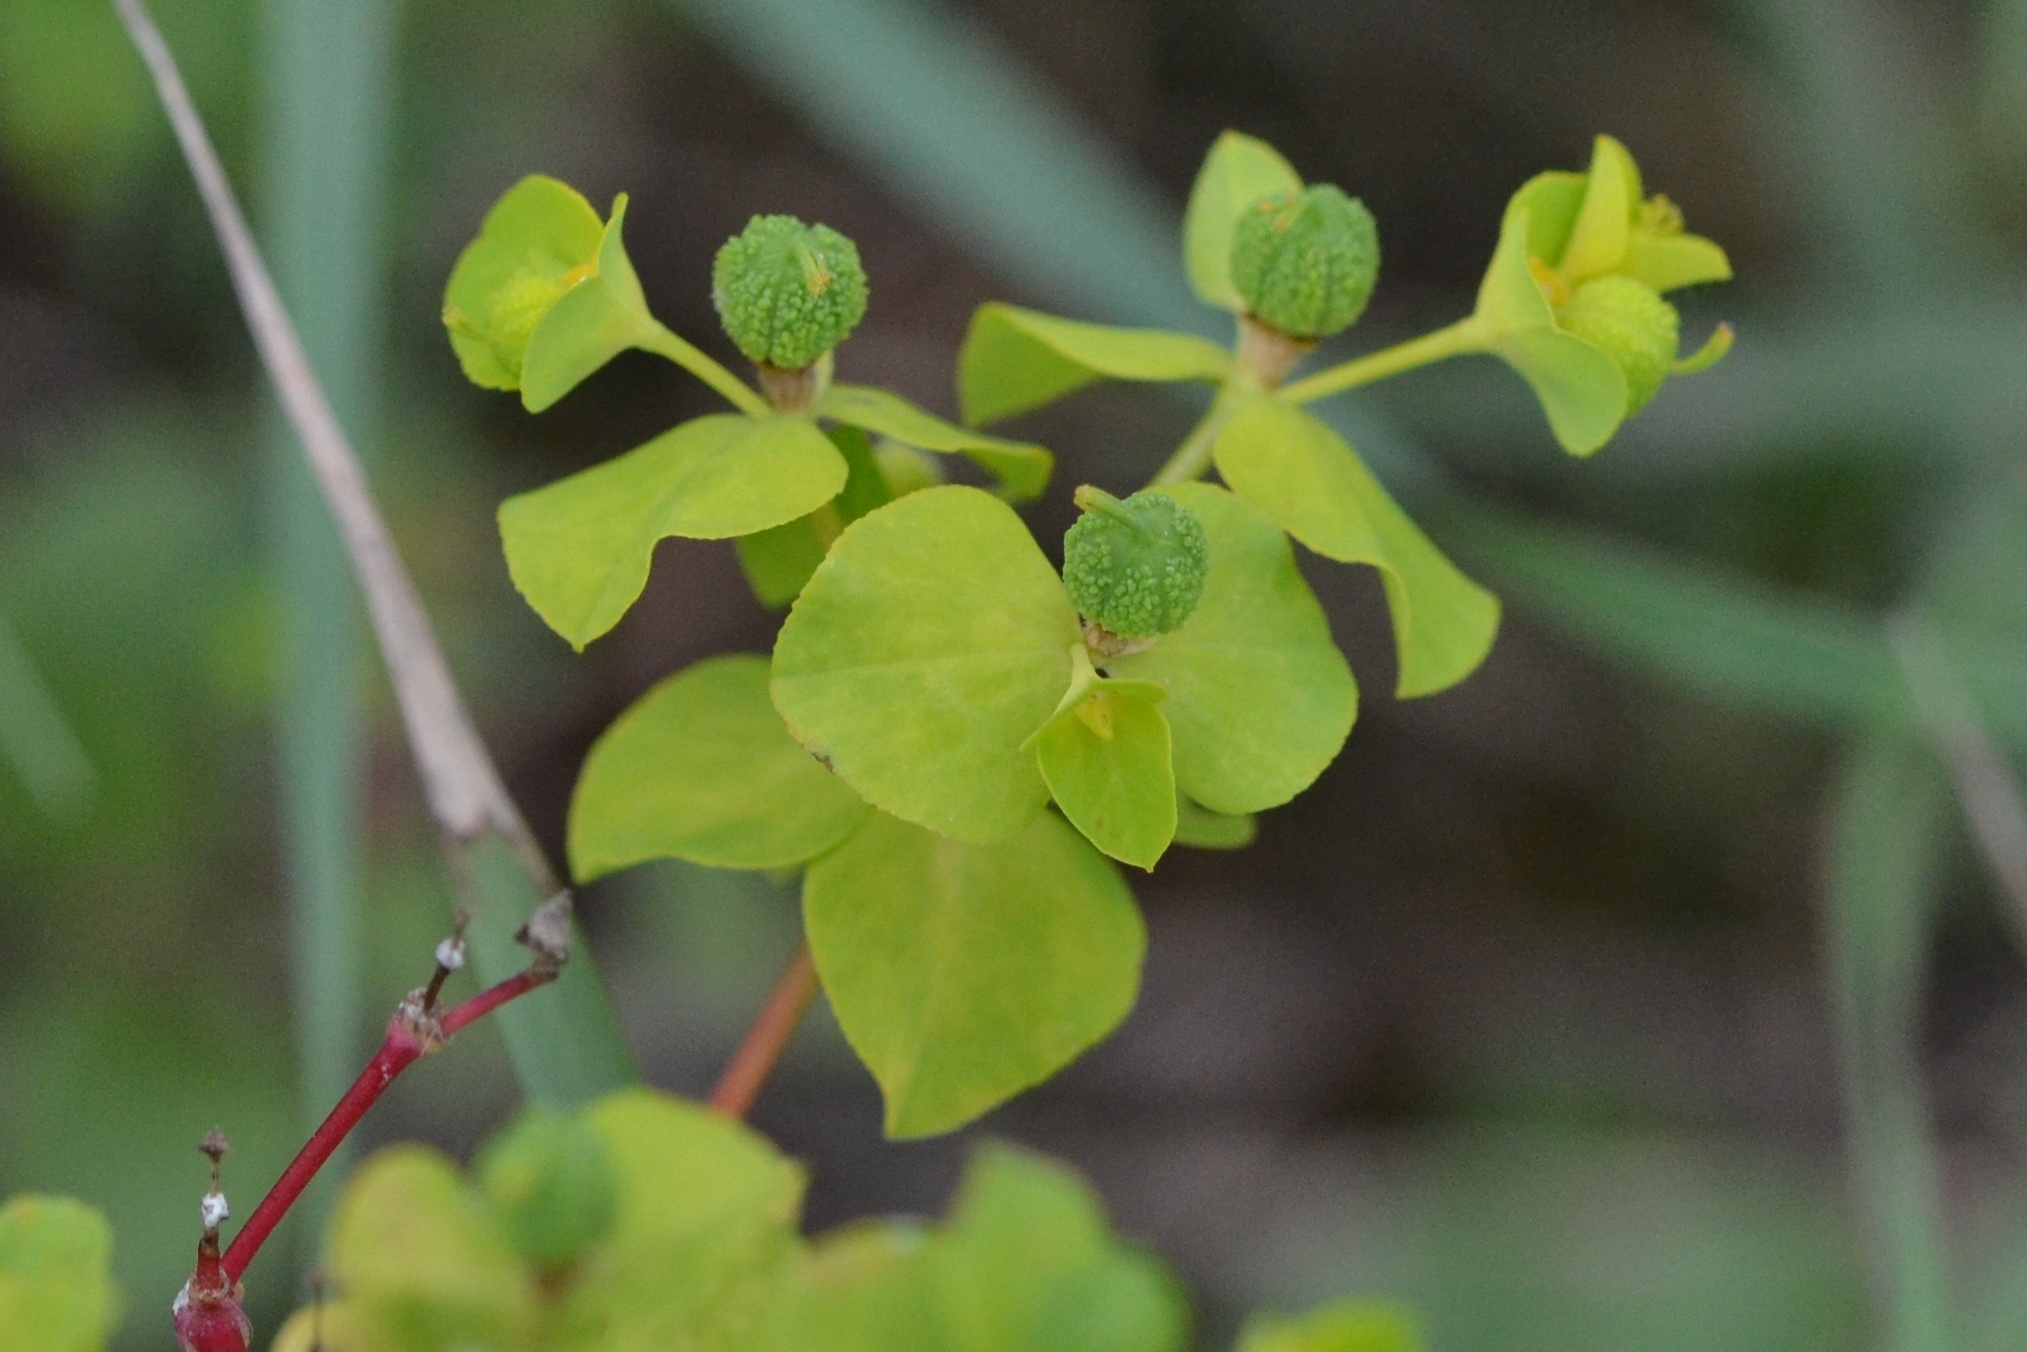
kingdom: Plantae
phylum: Tracheophyta
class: Magnoliopsida
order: Malpighiales
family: Euphorbiaceae
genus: Euphorbia
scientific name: Euphorbia platyphyllos
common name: Broad-leaved spurge
